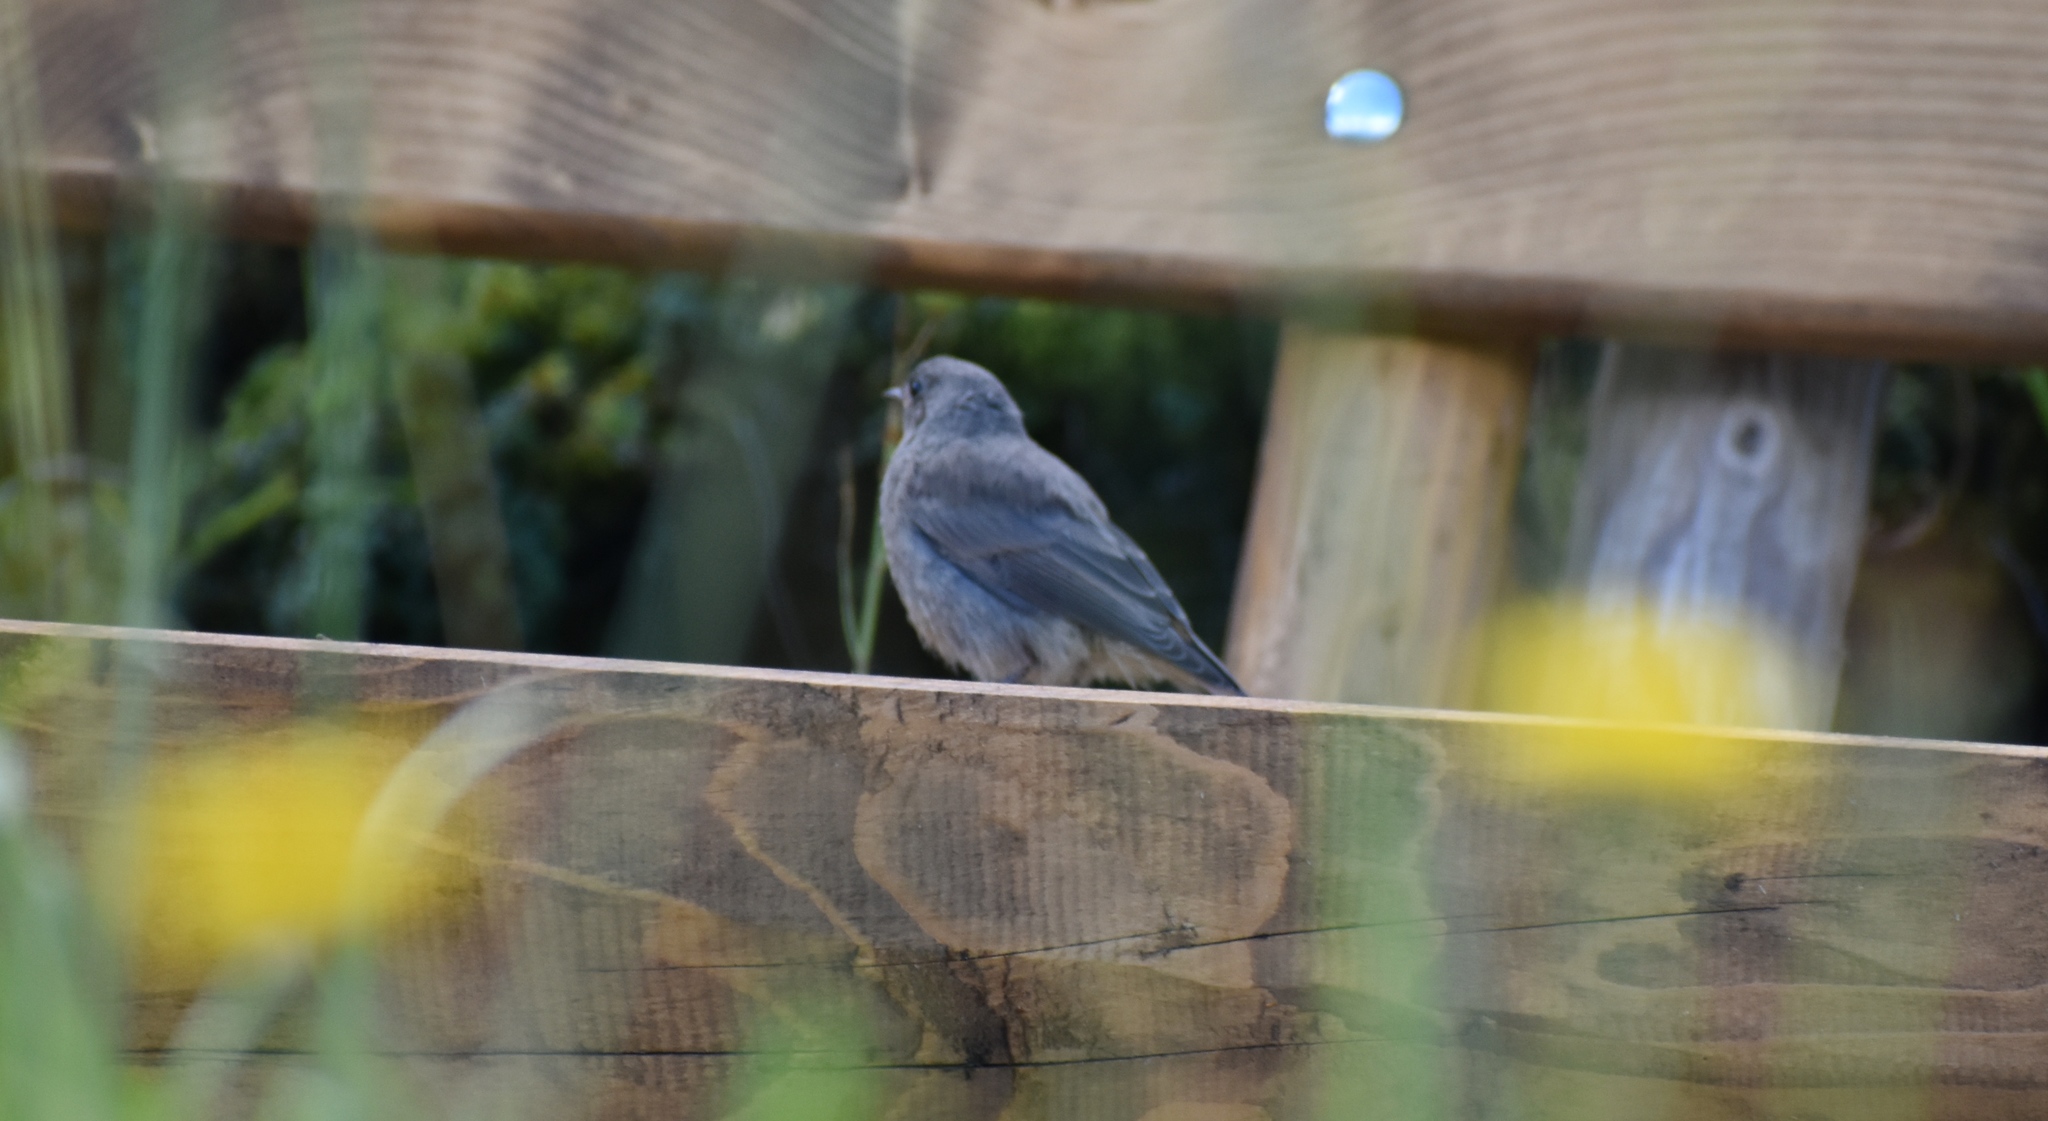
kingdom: Animalia
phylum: Chordata
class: Aves
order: Passeriformes
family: Muscicapidae
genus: Phoenicurus
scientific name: Phoenicurus ochruros
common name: Black redstart
